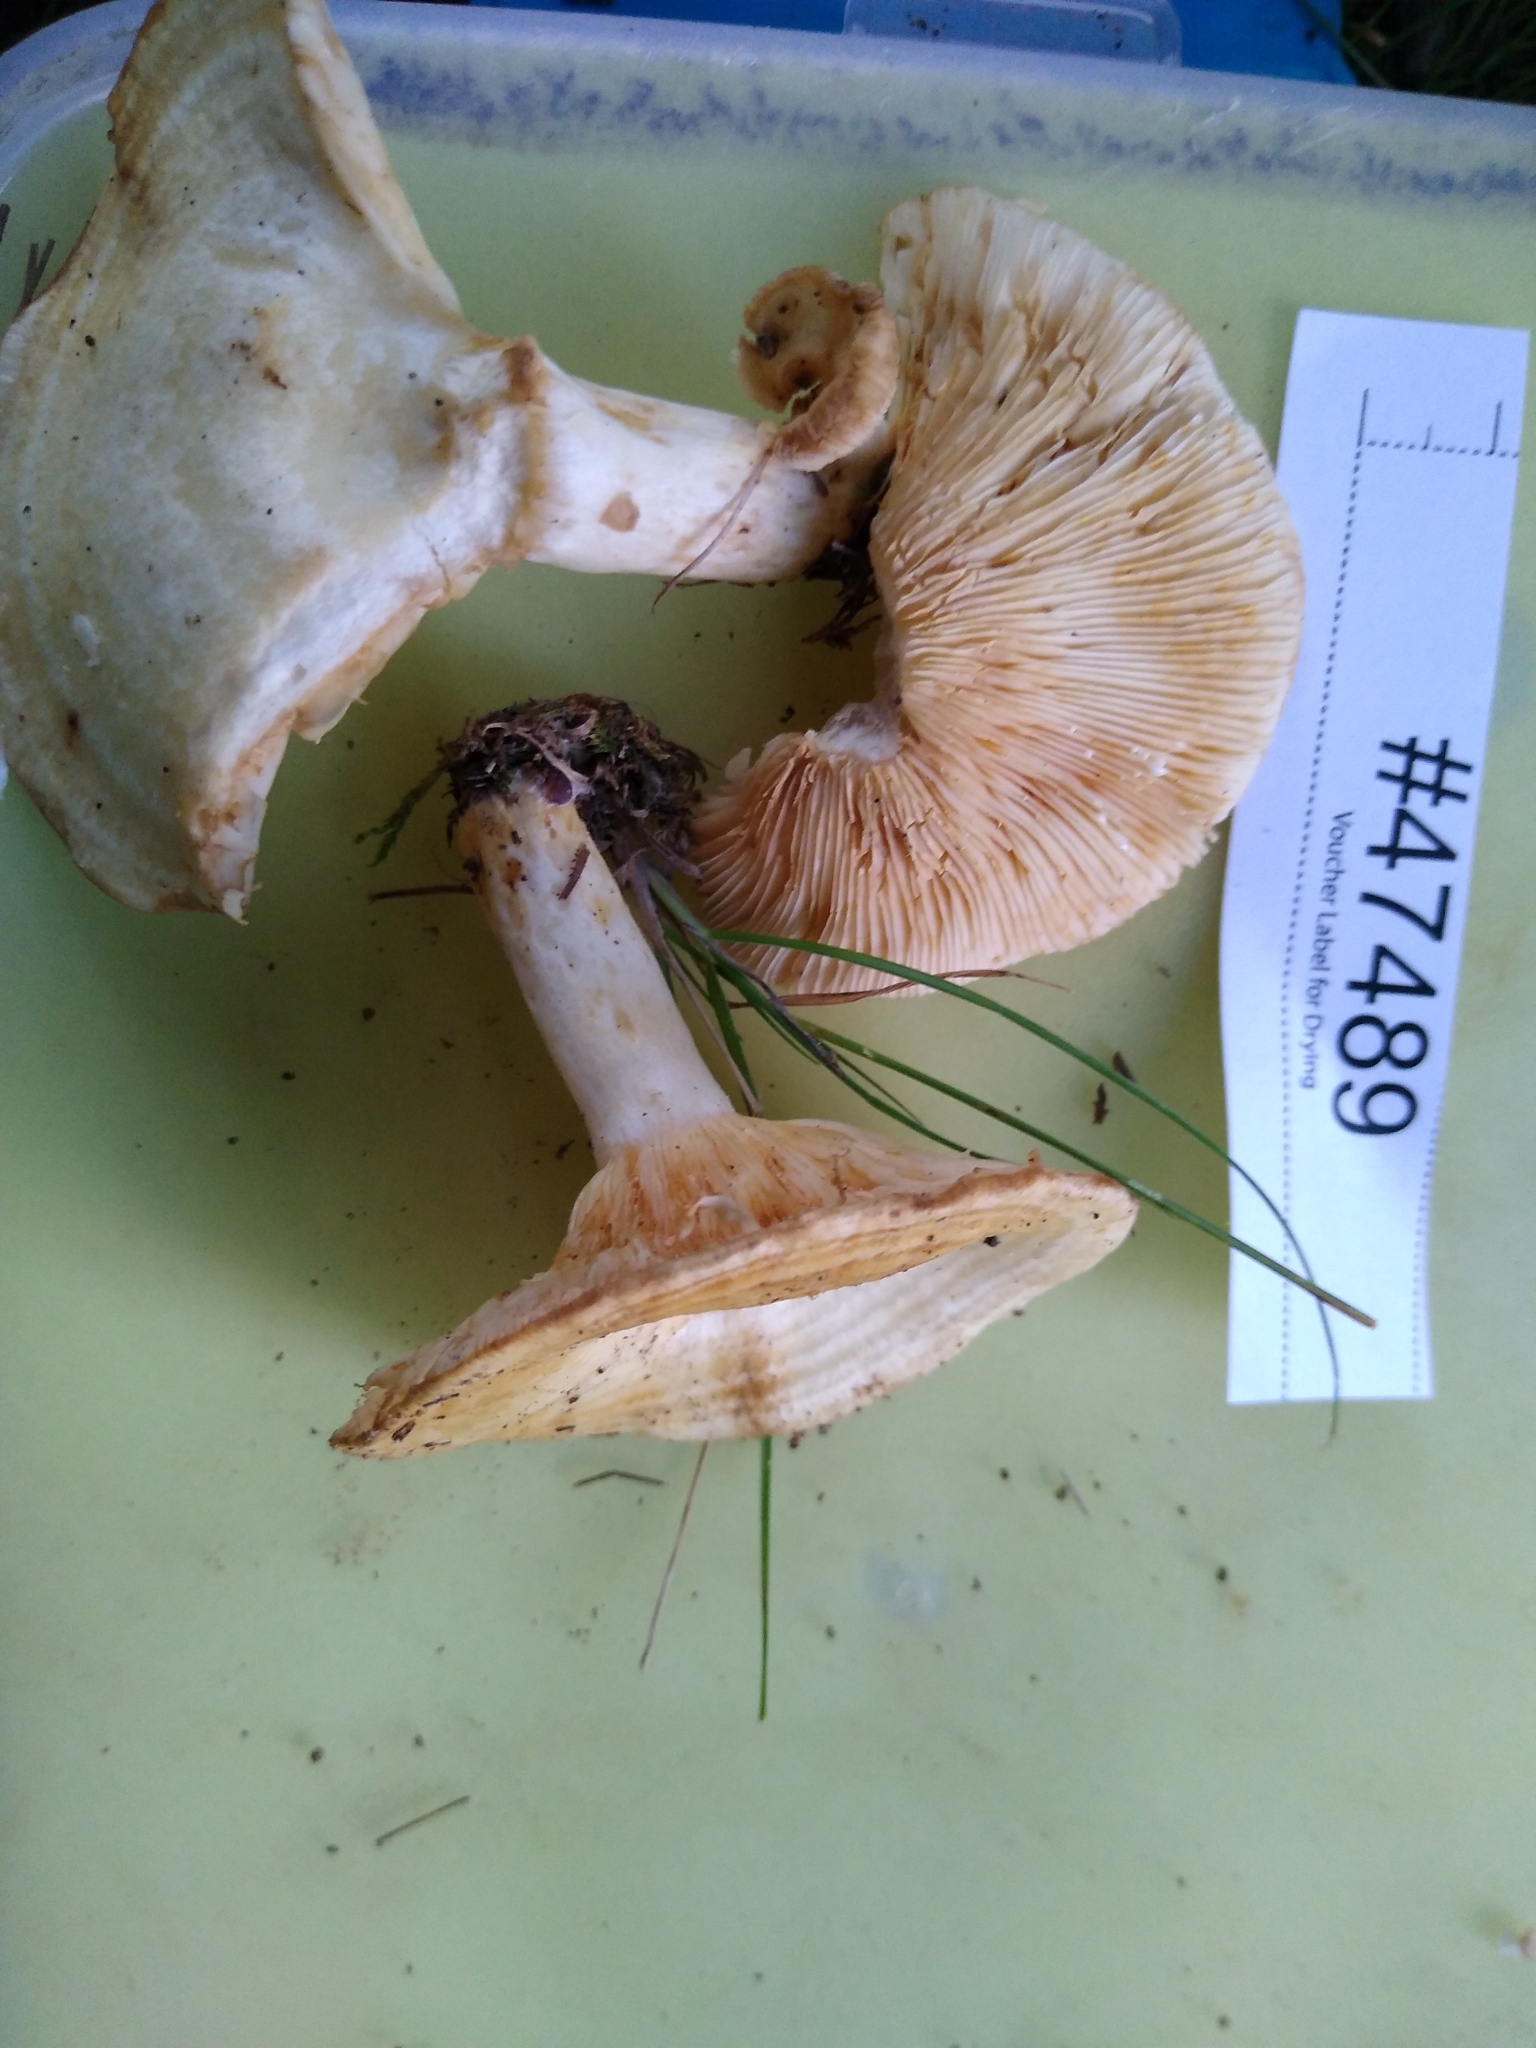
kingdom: Fungi
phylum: Basidiomycota
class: Agaricomycetes
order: Russulales
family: Russulaceae
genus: Lactarius
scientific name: Lactarius yazooensis
